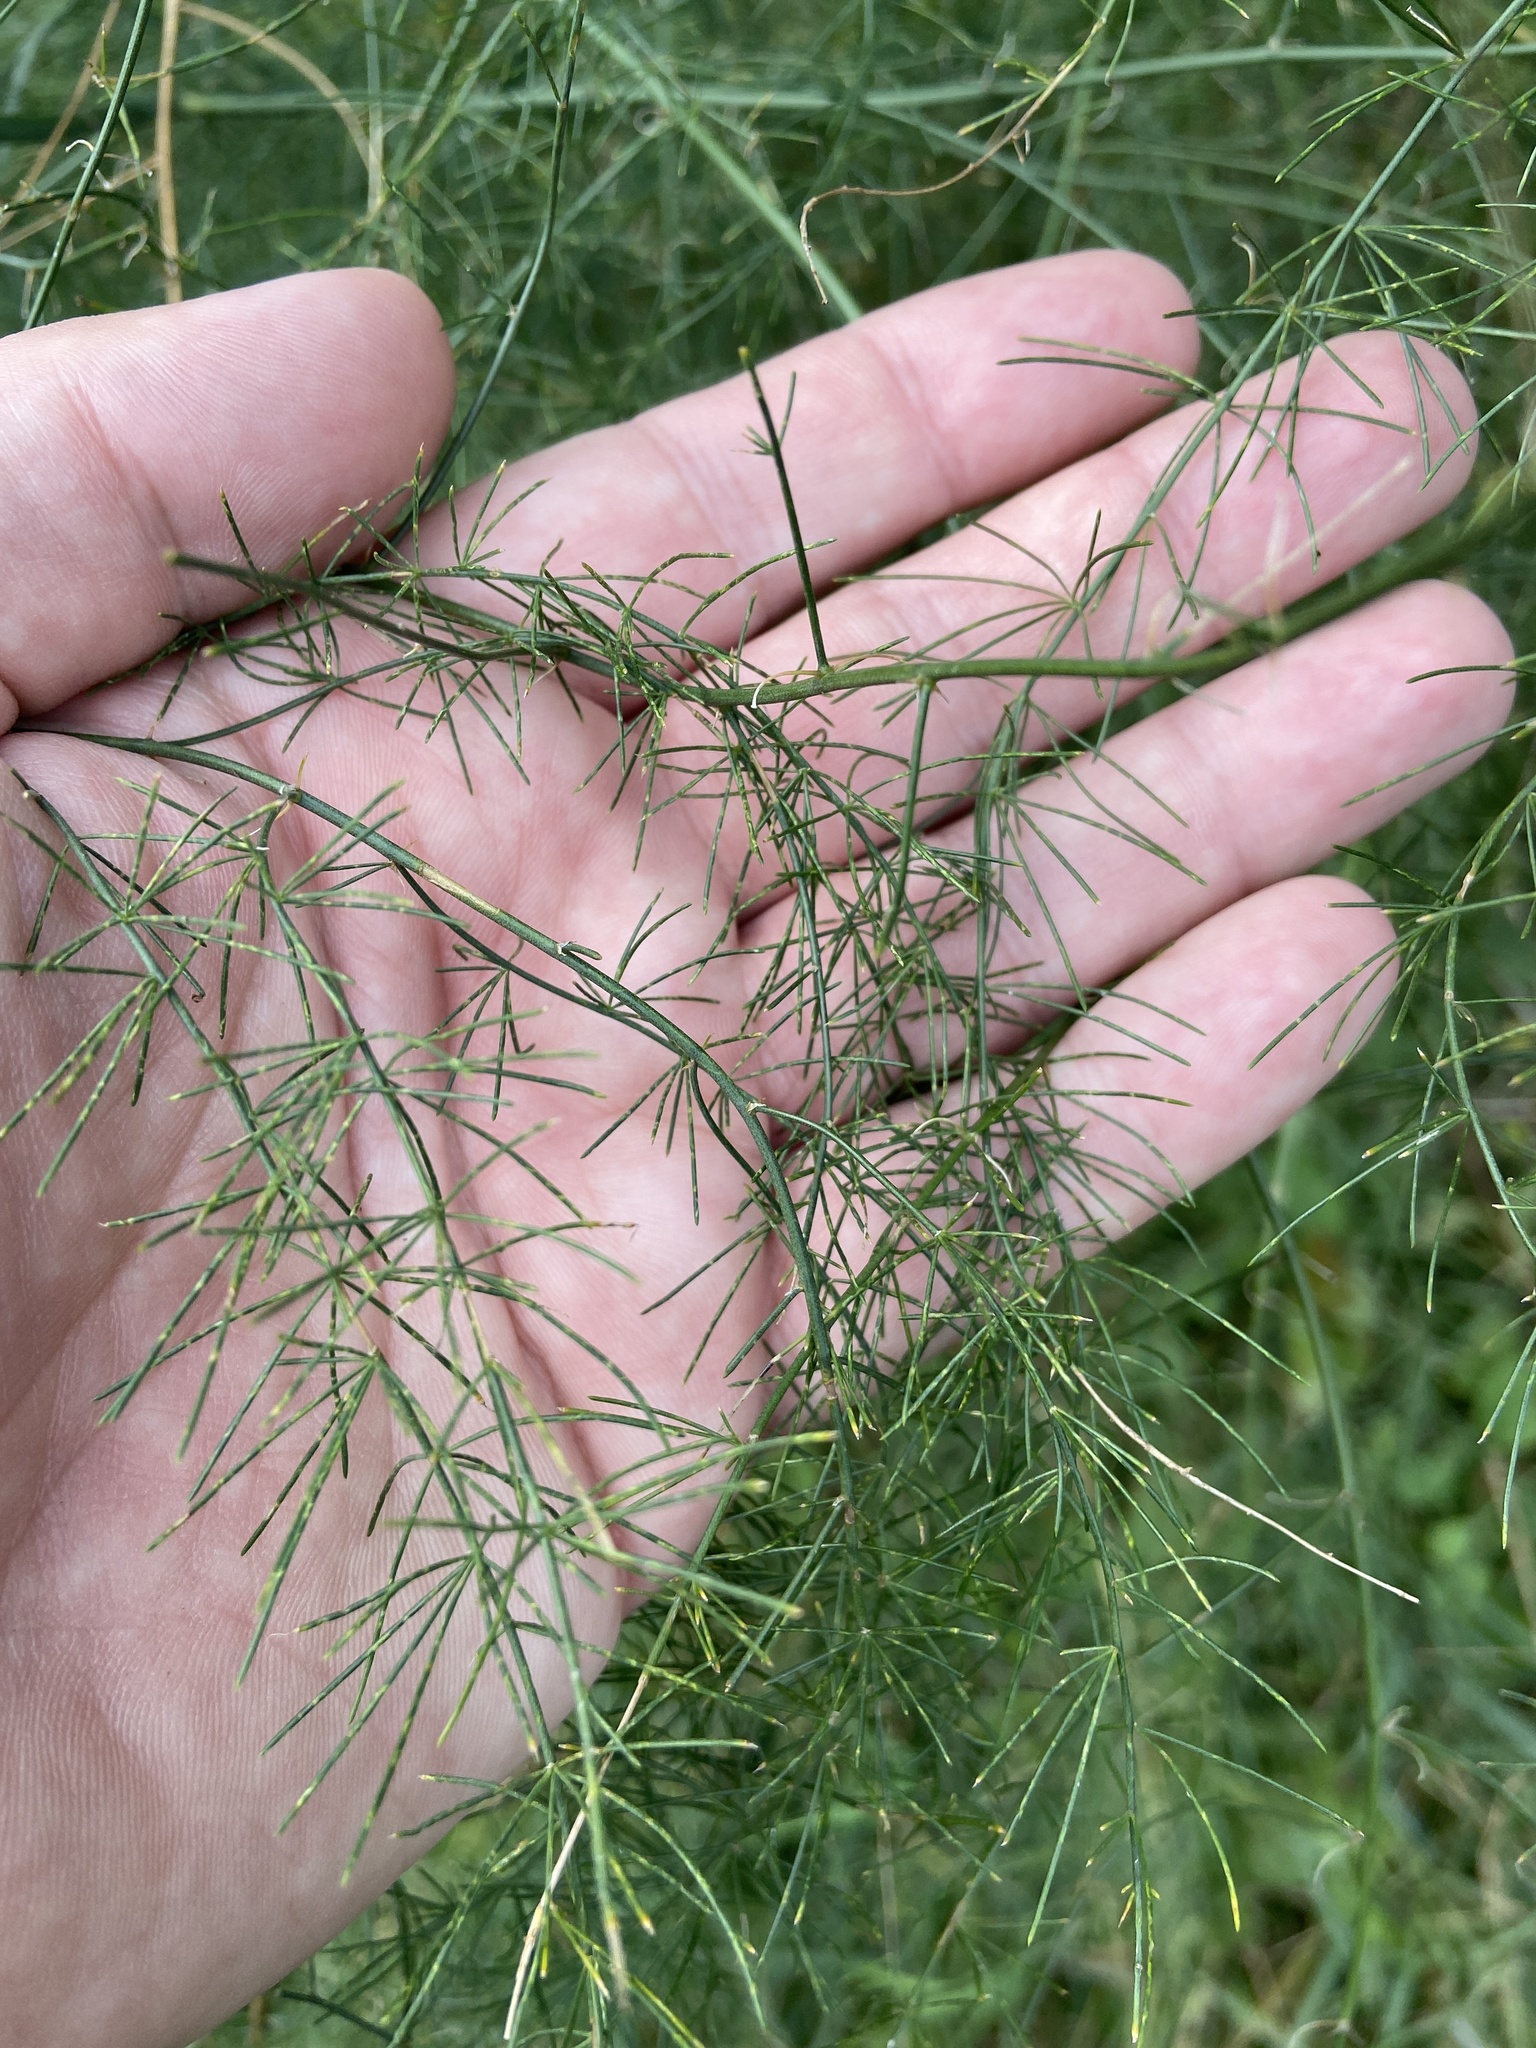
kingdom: Plantae
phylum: Tracheophyta
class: Liliopsida
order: Asparagales
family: Asparagaceae
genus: Asparagus
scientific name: Asparagus officinalis
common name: Garden asparagus
